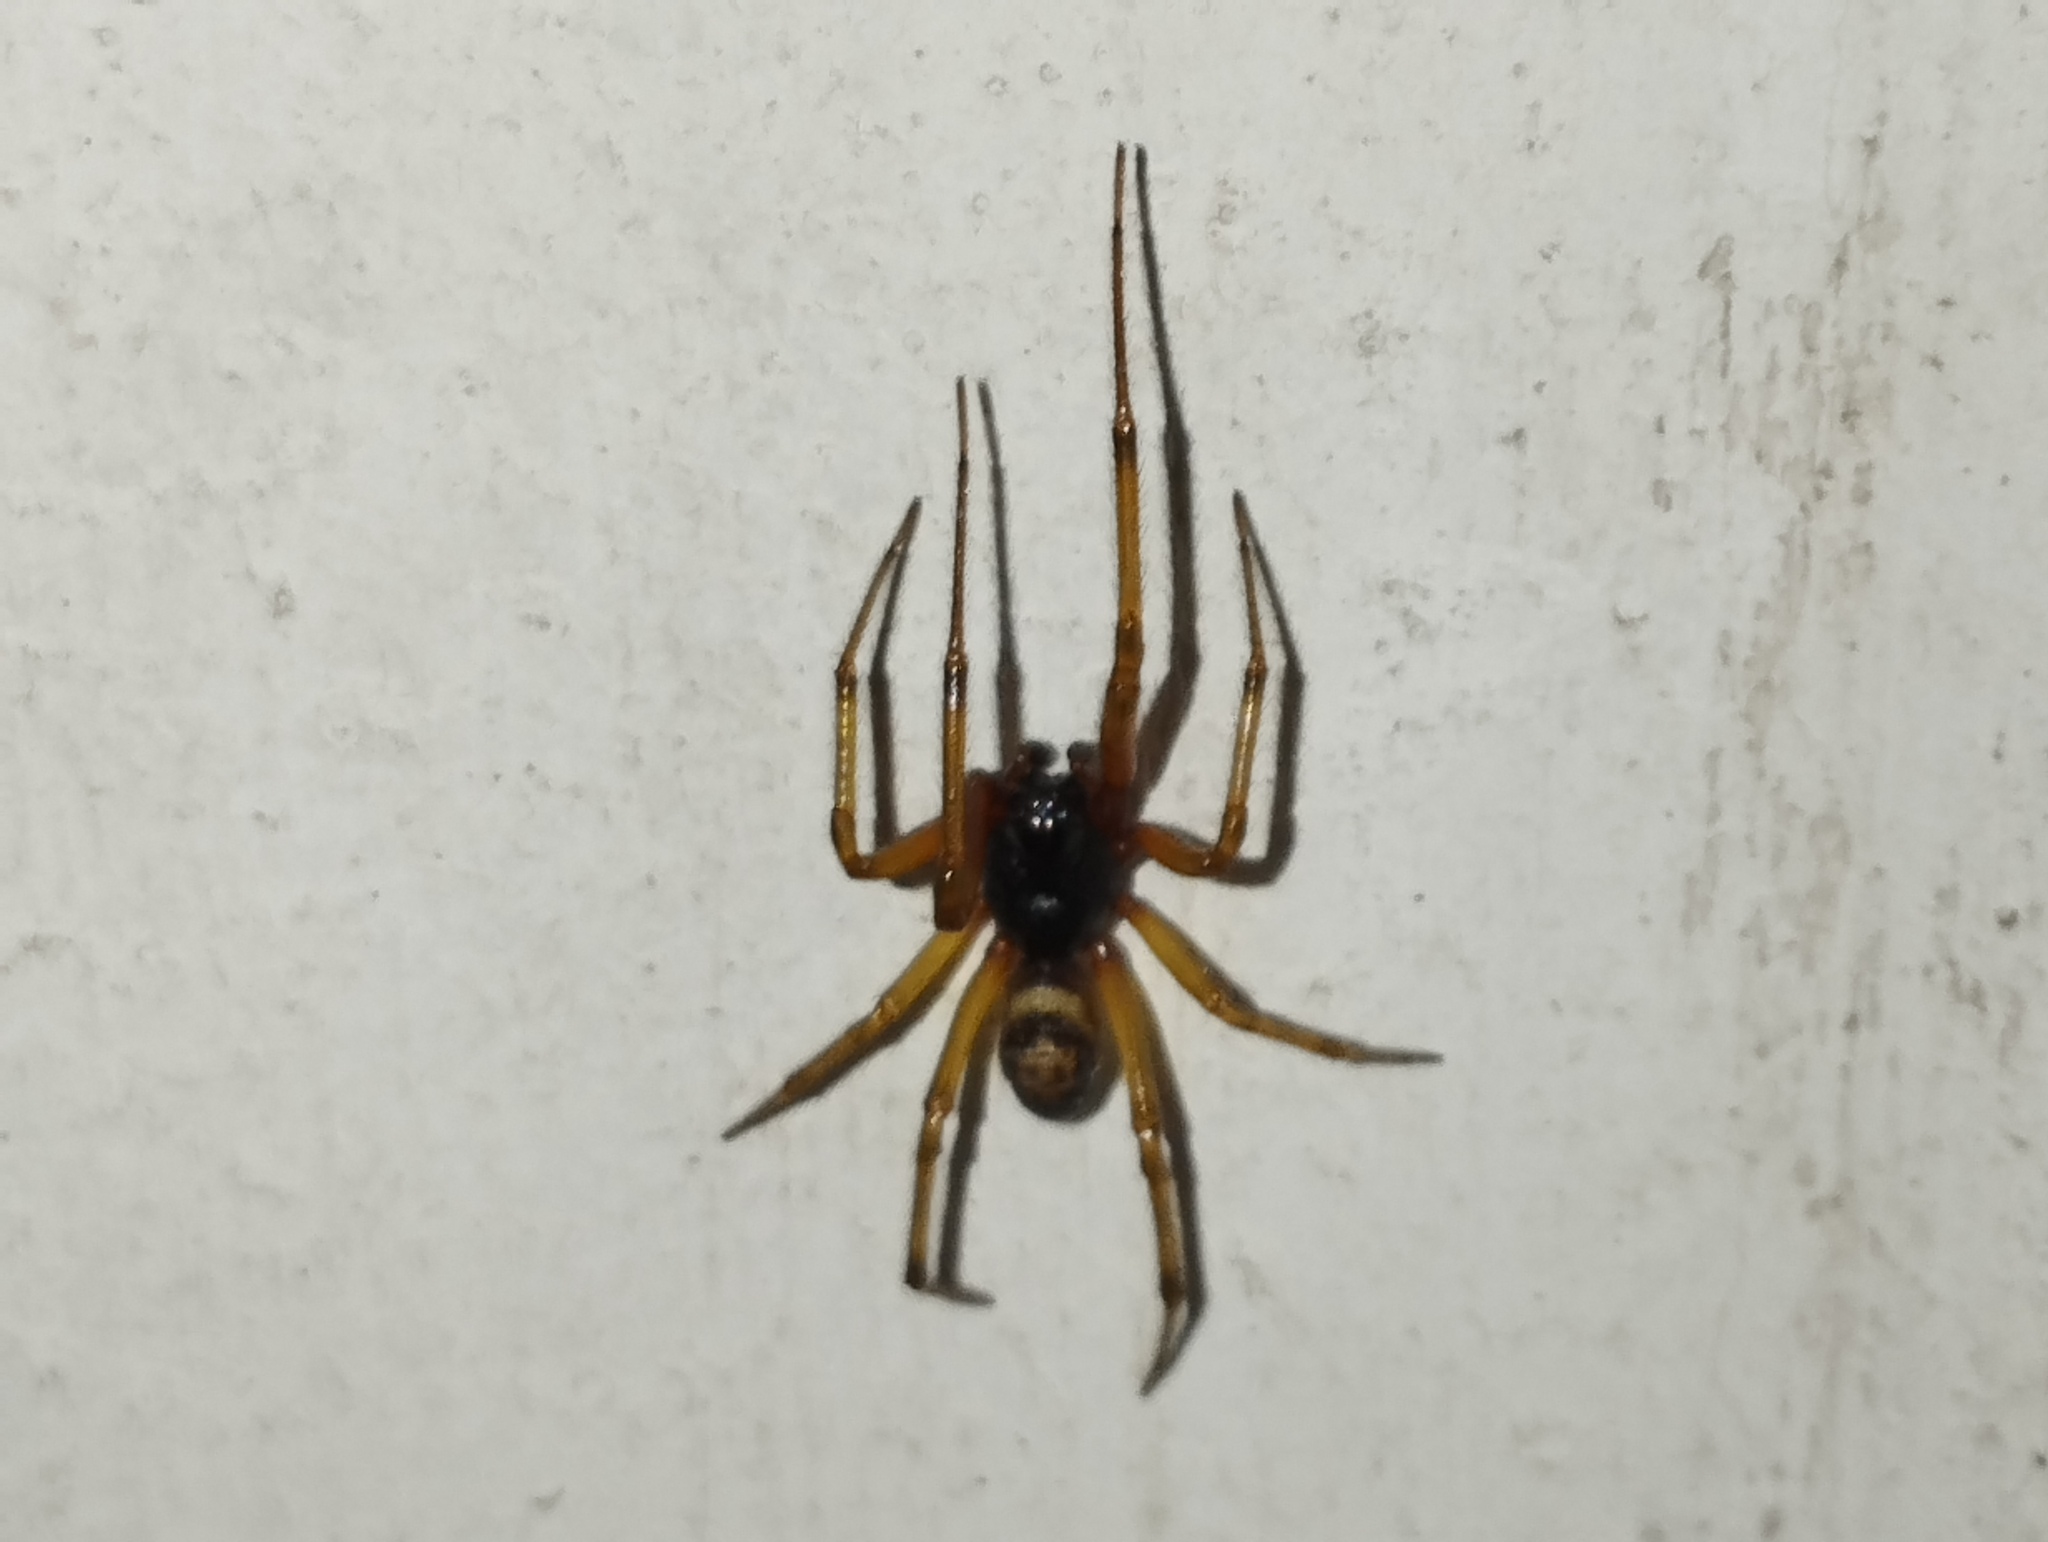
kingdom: Animalia
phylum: Arthropoda
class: Arachnida
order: Araneae
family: Theridiidae
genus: Steatoda
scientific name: Steatoda nobilis
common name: Cobweb weaver
